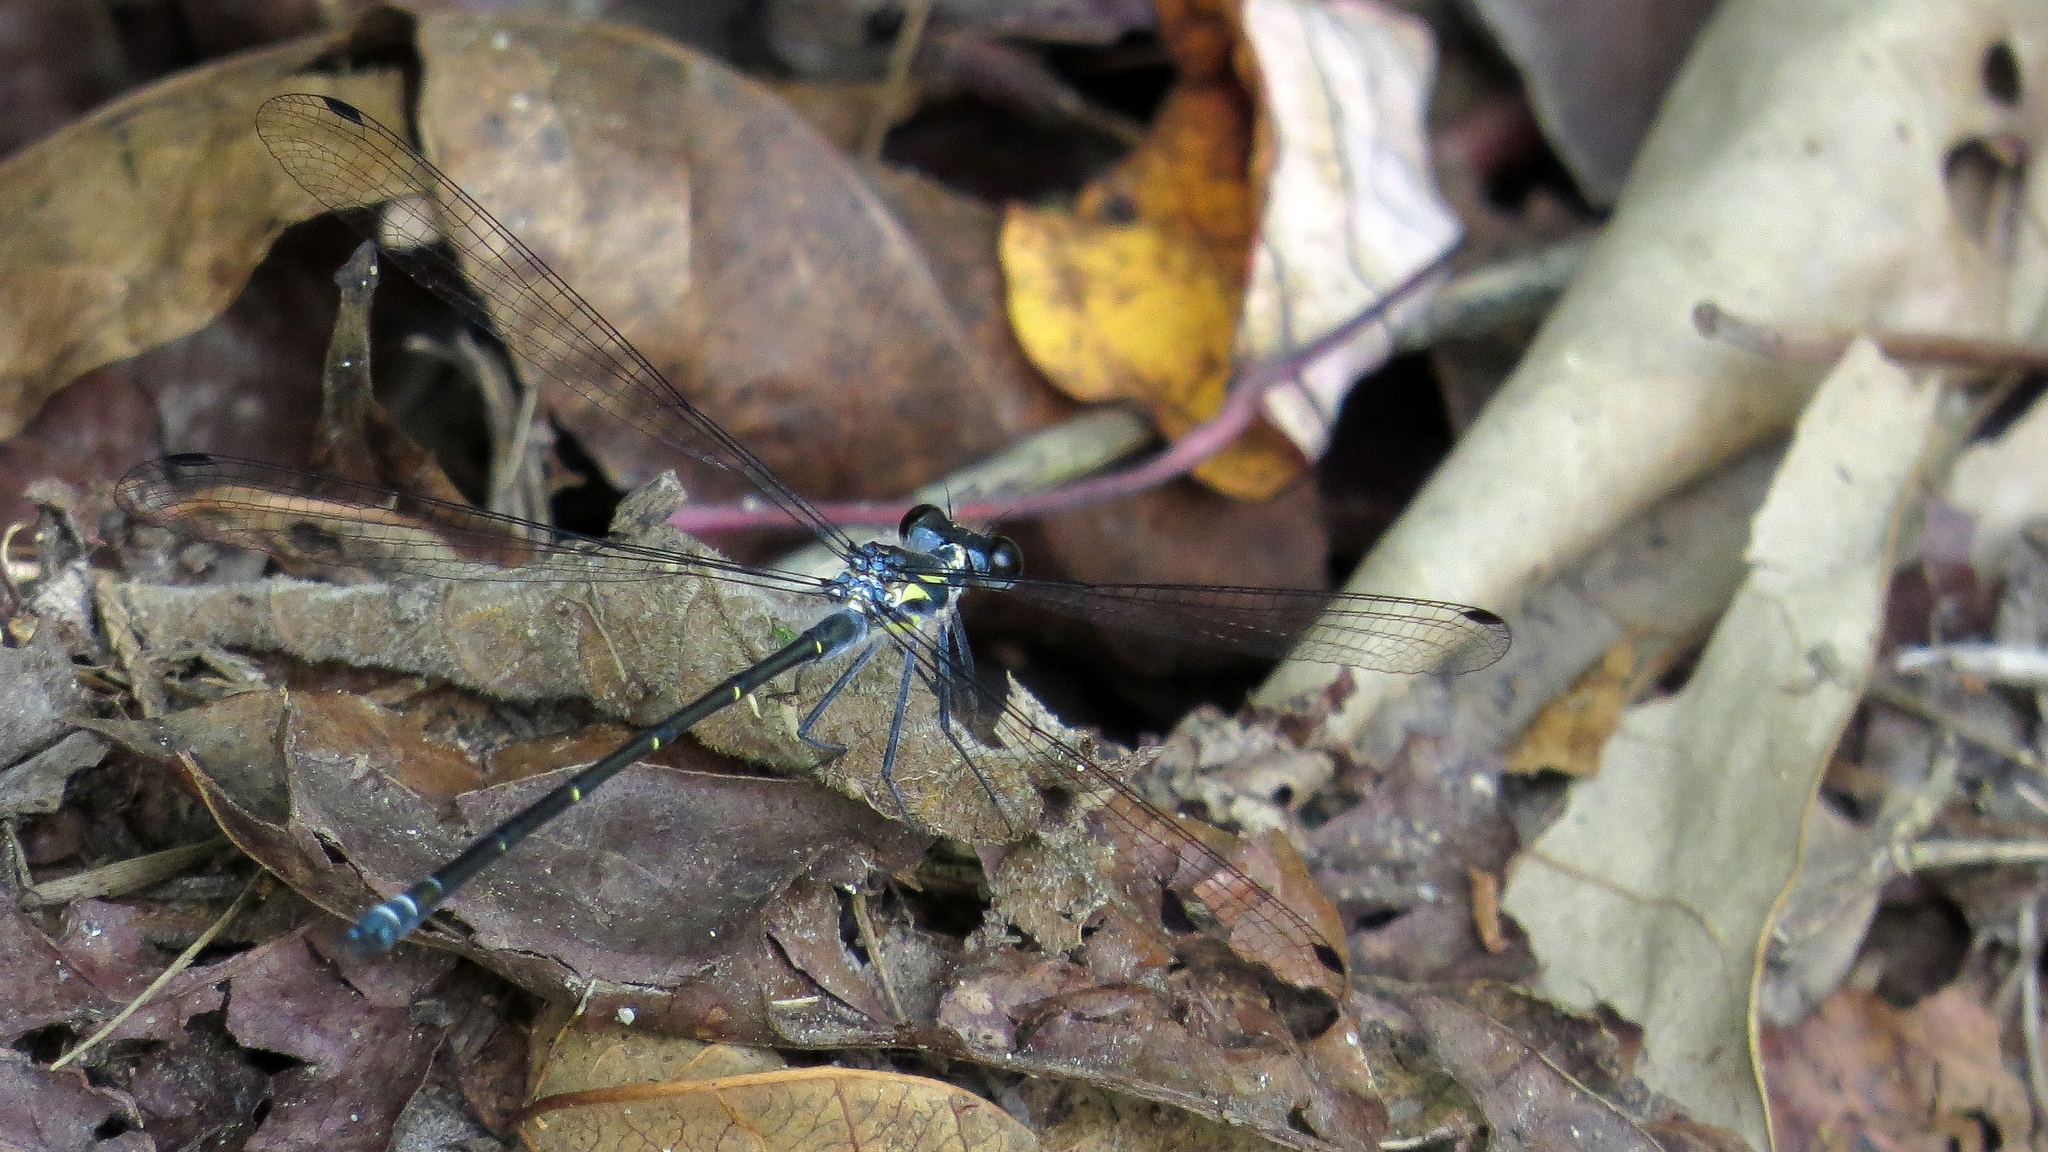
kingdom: Animalia
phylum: Arthropoda
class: Insecta
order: Odonata
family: Argiolestidae
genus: Austroargiolestes
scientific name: Austroargiolestes icteromelas
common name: Common flatwing
